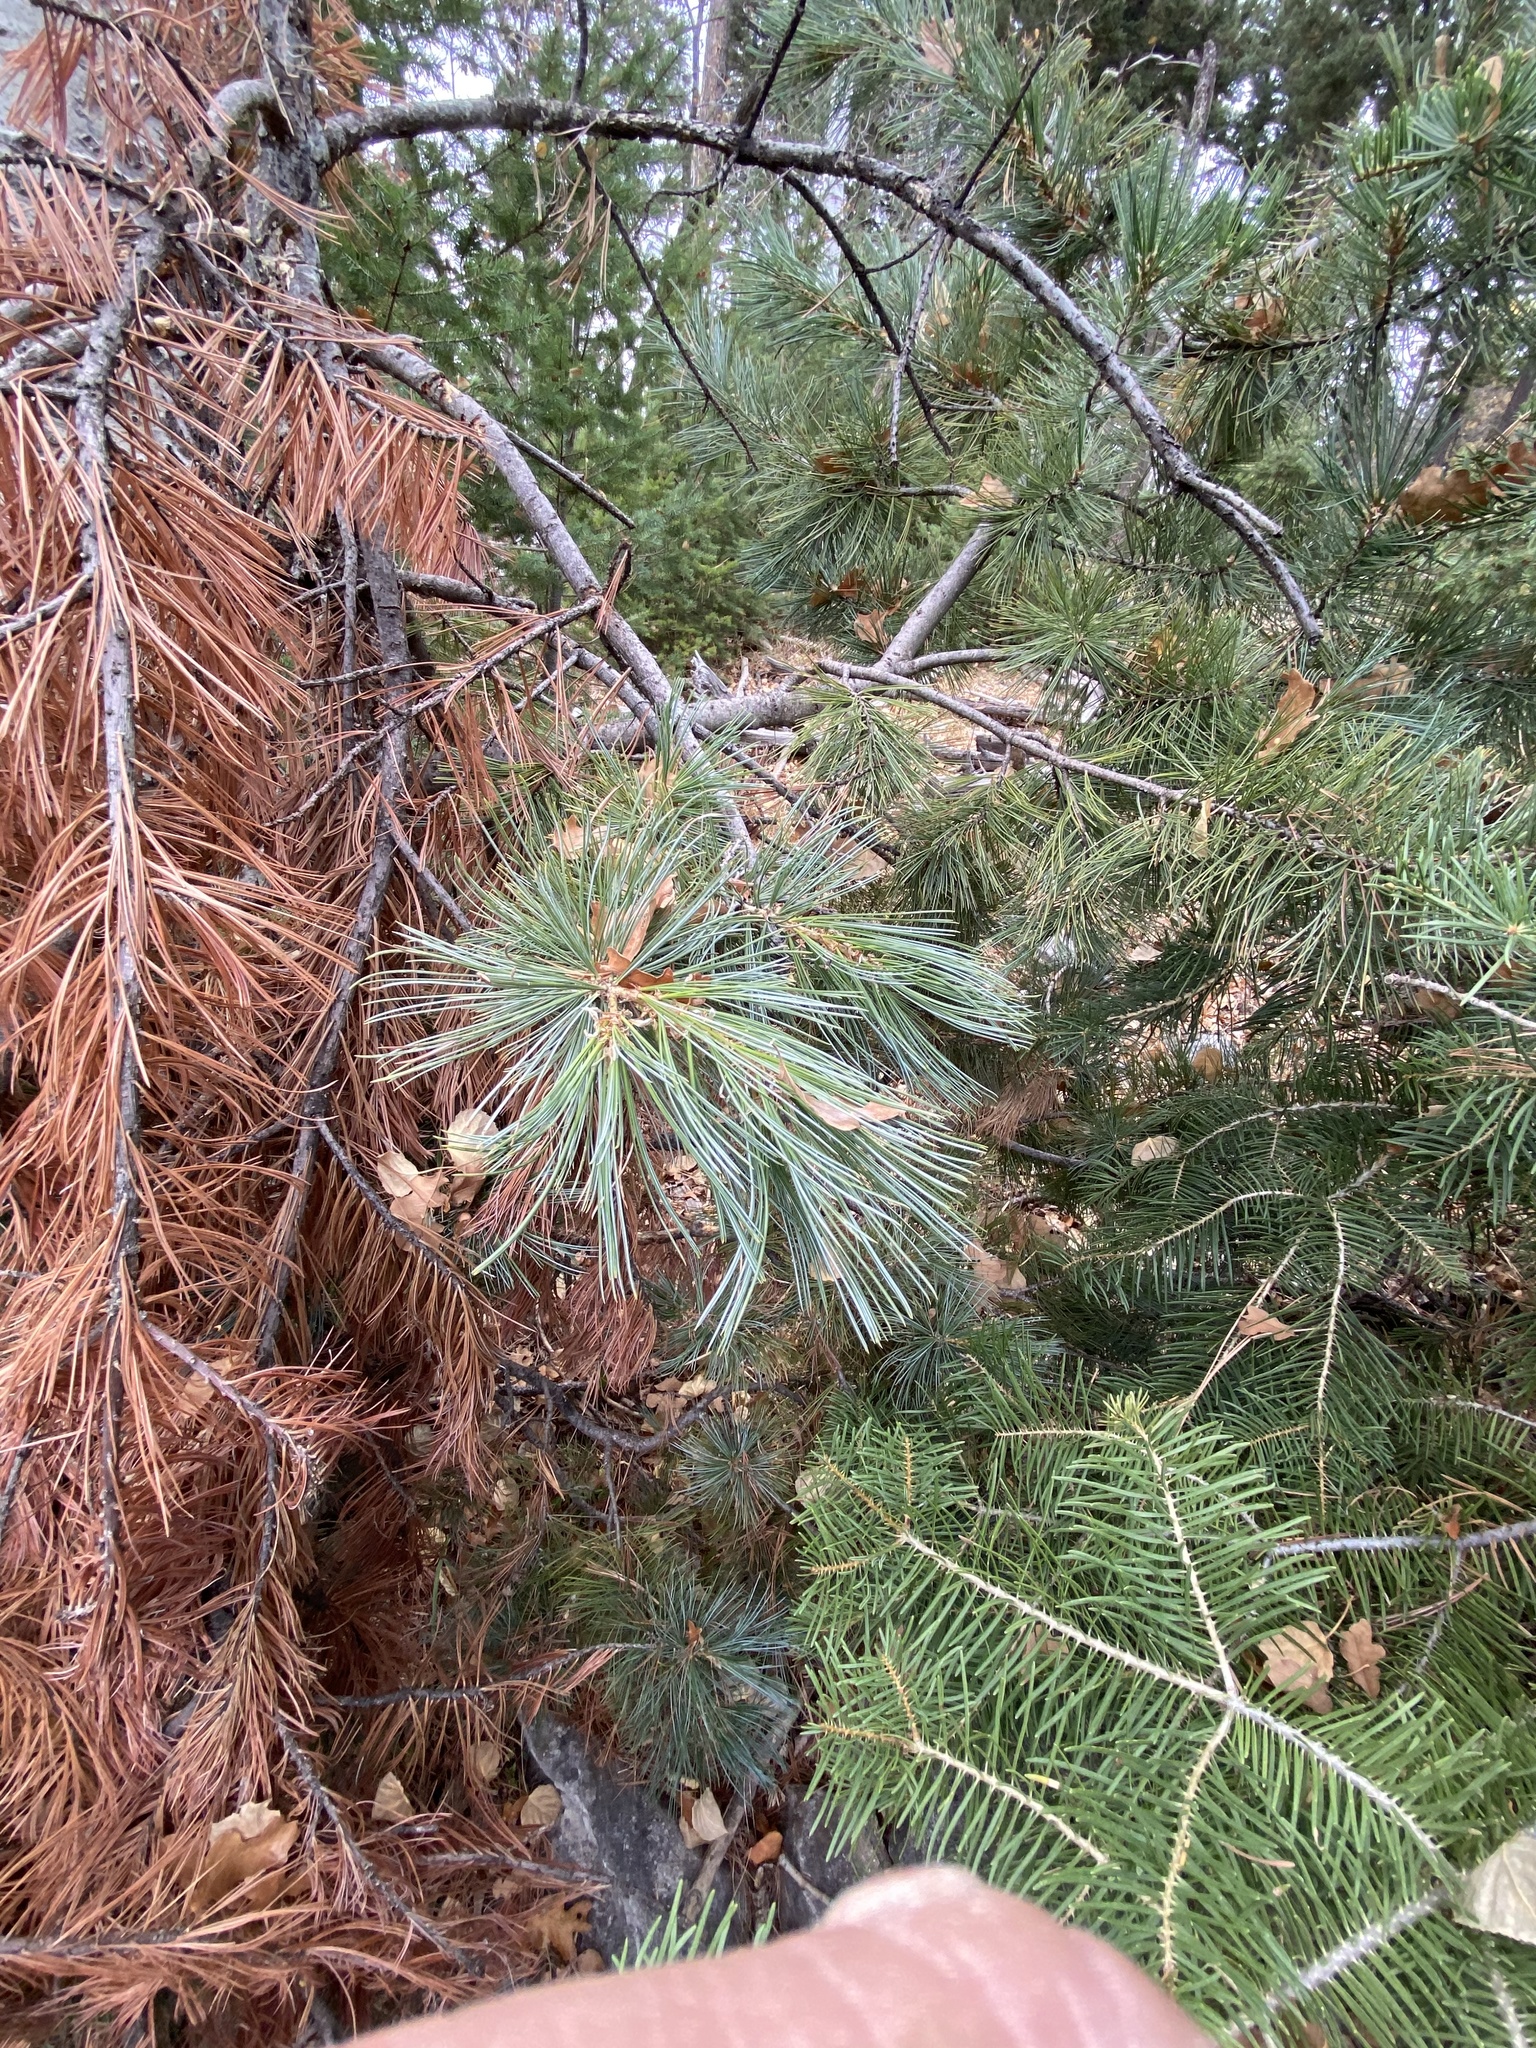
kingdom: Plantae
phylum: Tracheophyta
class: Pinopsida
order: Pinales
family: Pinaceae
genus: Pinus
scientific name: Pinus strobiformis
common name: Southwestern white pine
